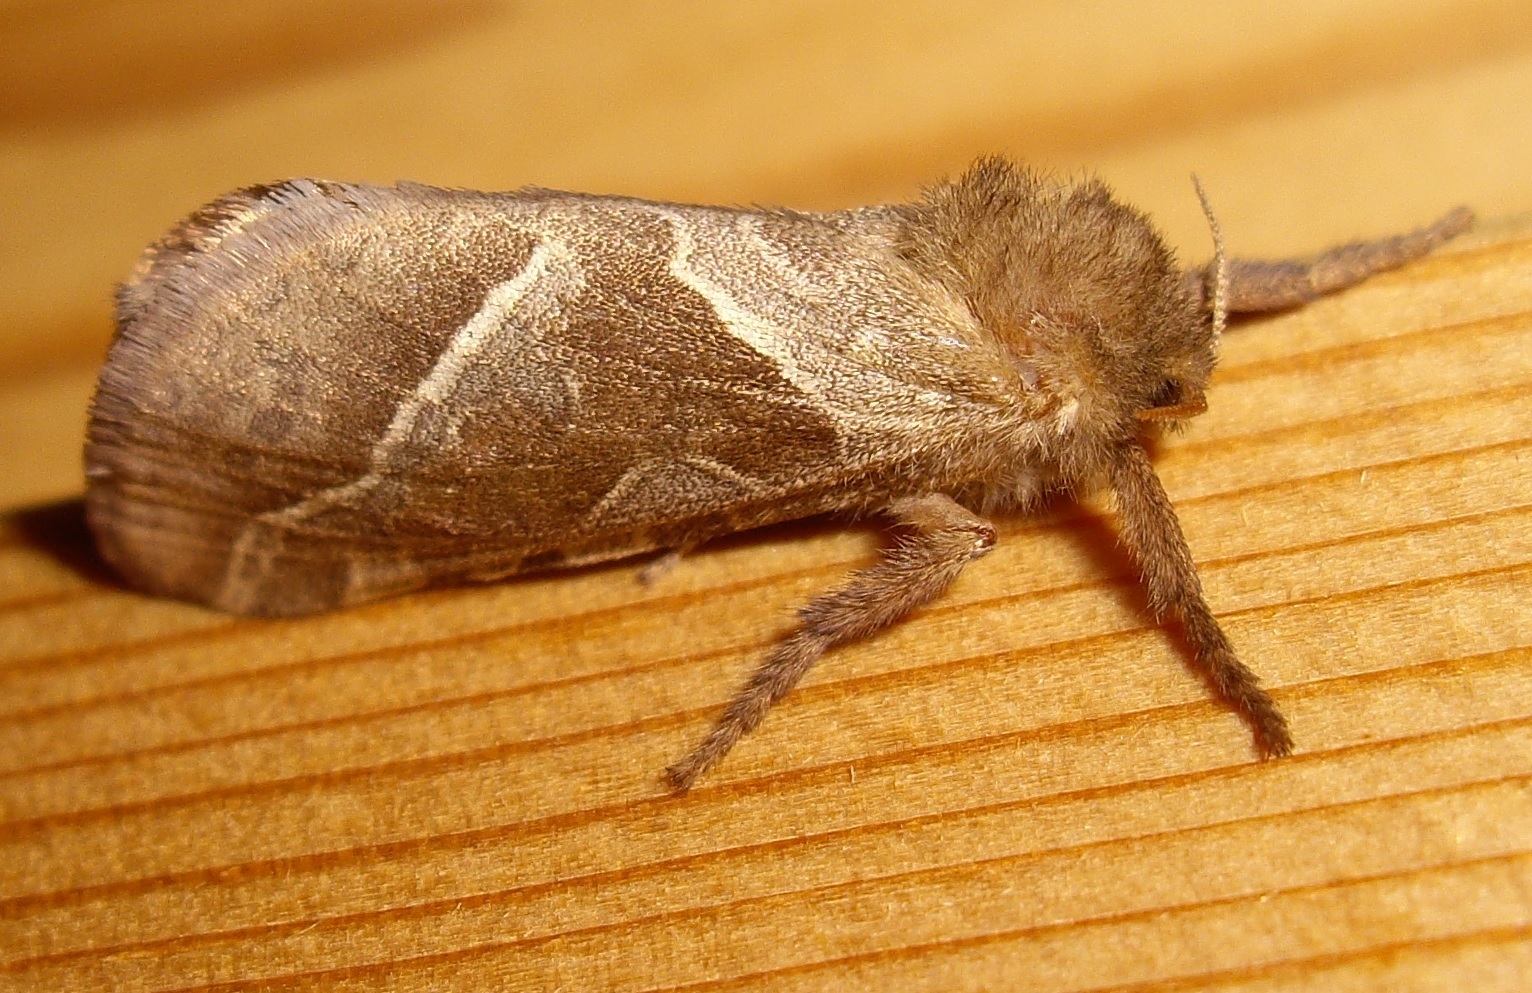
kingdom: Animalia
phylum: Arthropoda
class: Insecta
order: Lepidoptera
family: Hepialidae
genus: Triodia
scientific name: Triodia sylvina
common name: Orange swift
